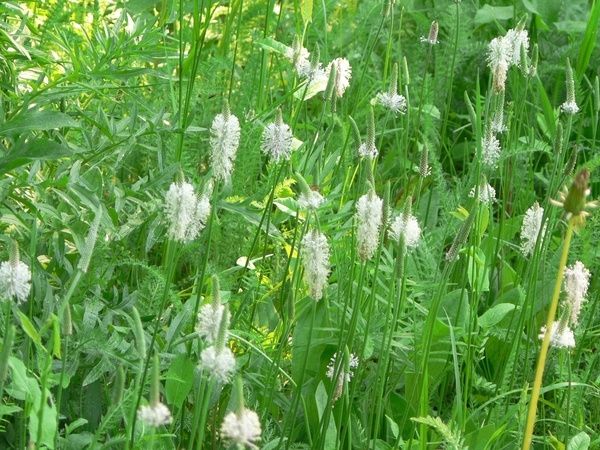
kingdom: Plantae
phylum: Tracheophyta
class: Magnoliopsida
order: Lamiales
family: Plantaginaceae
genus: Plantago
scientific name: Plantago media
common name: Hoary plantain
